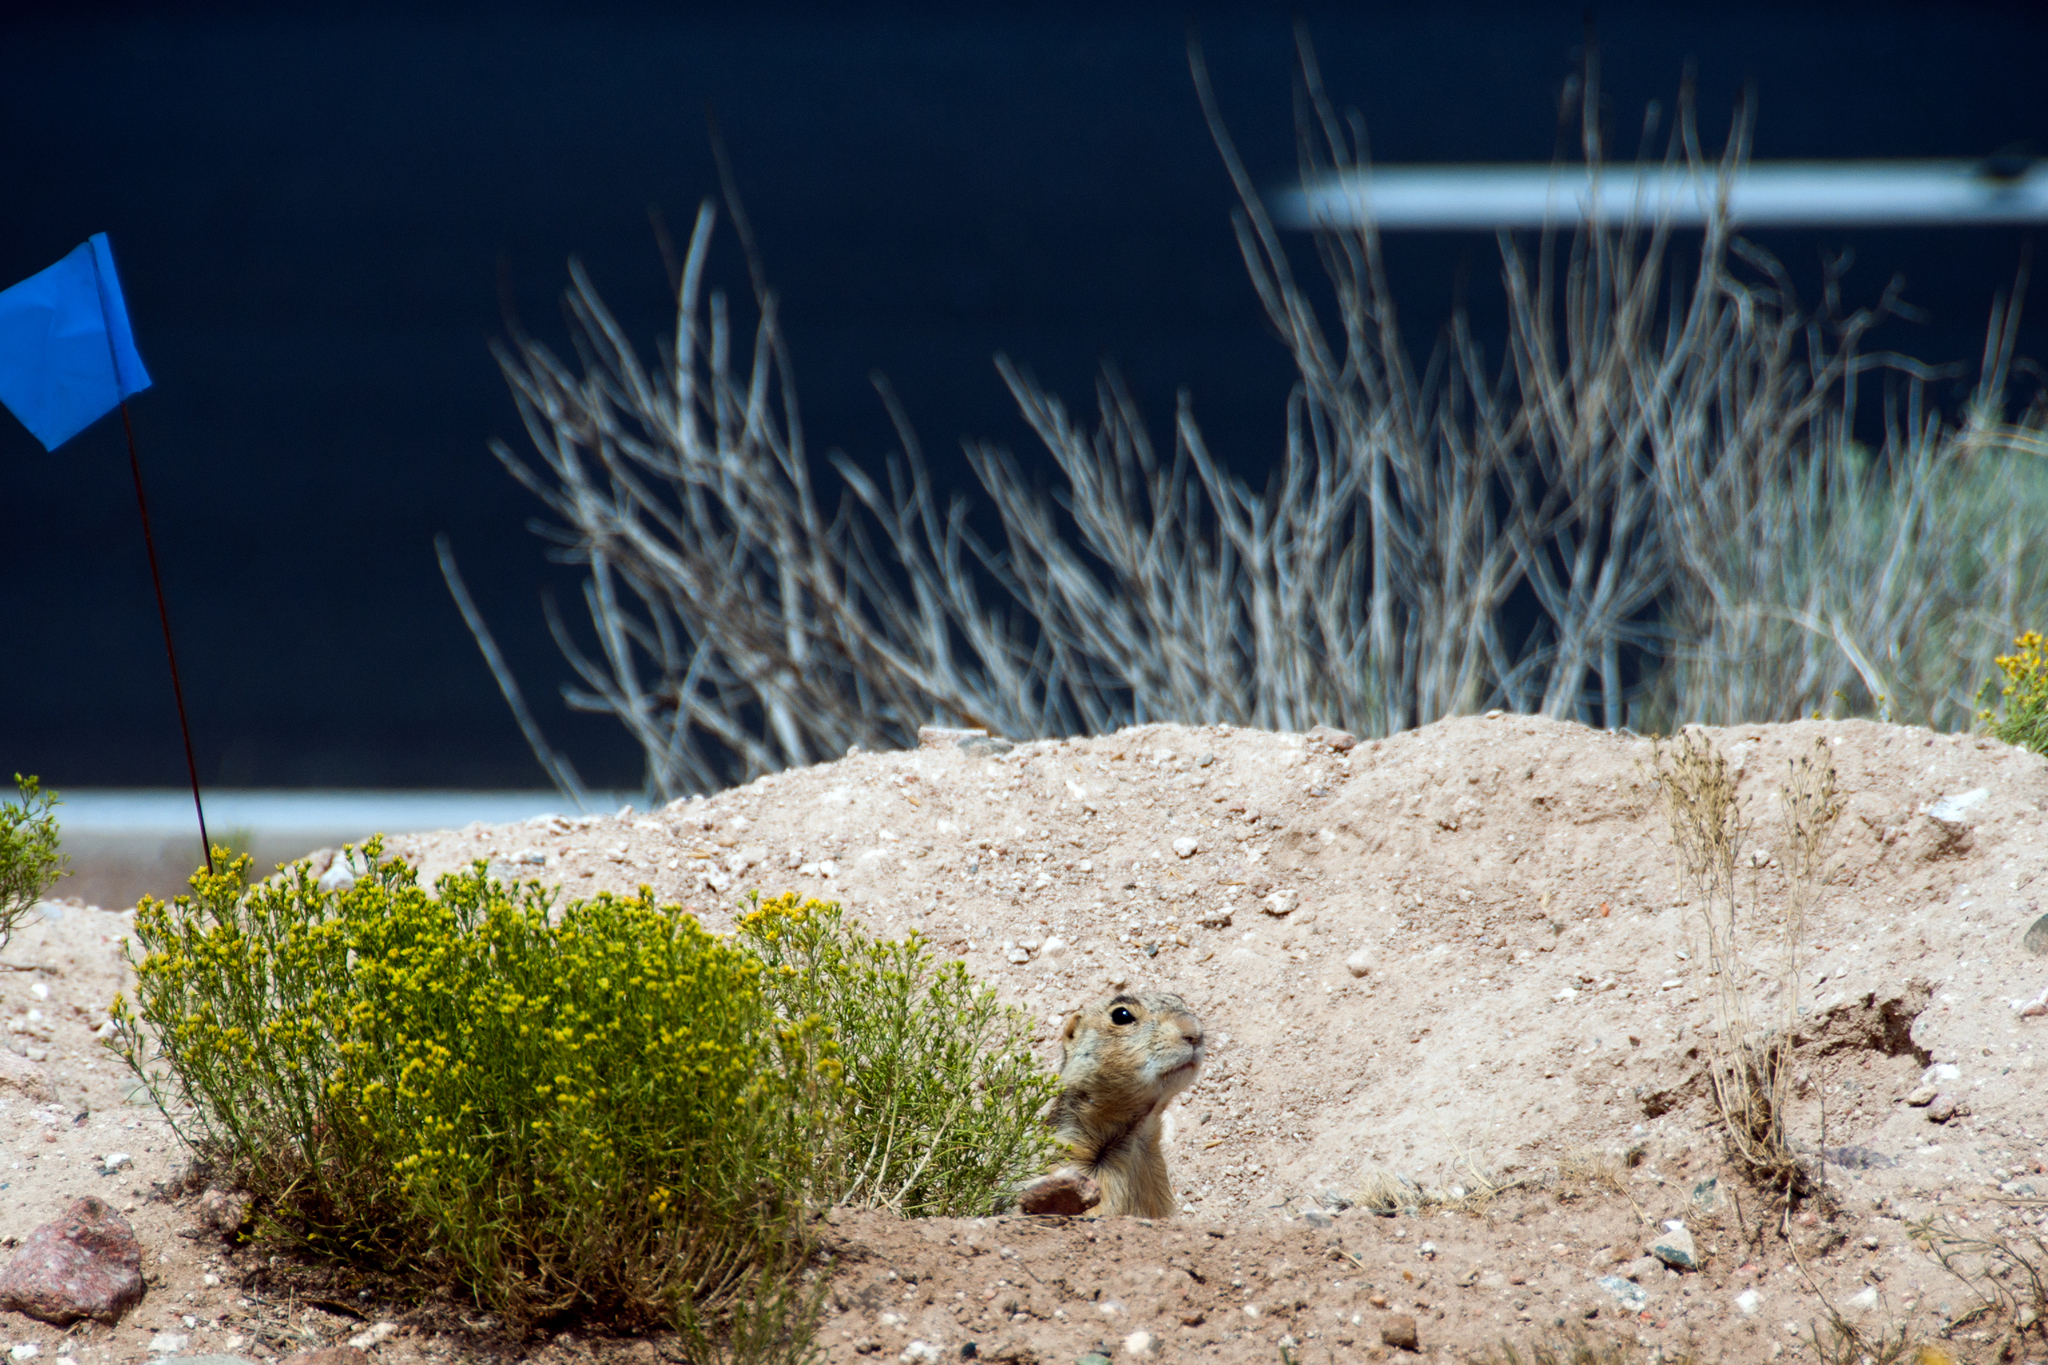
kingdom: Animalia
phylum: Chordata
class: Mammalia
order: Rodentia
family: Sciuridae
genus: Cynomys
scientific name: Cynomys gunnisoni
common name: Gunnison's prairie dog
